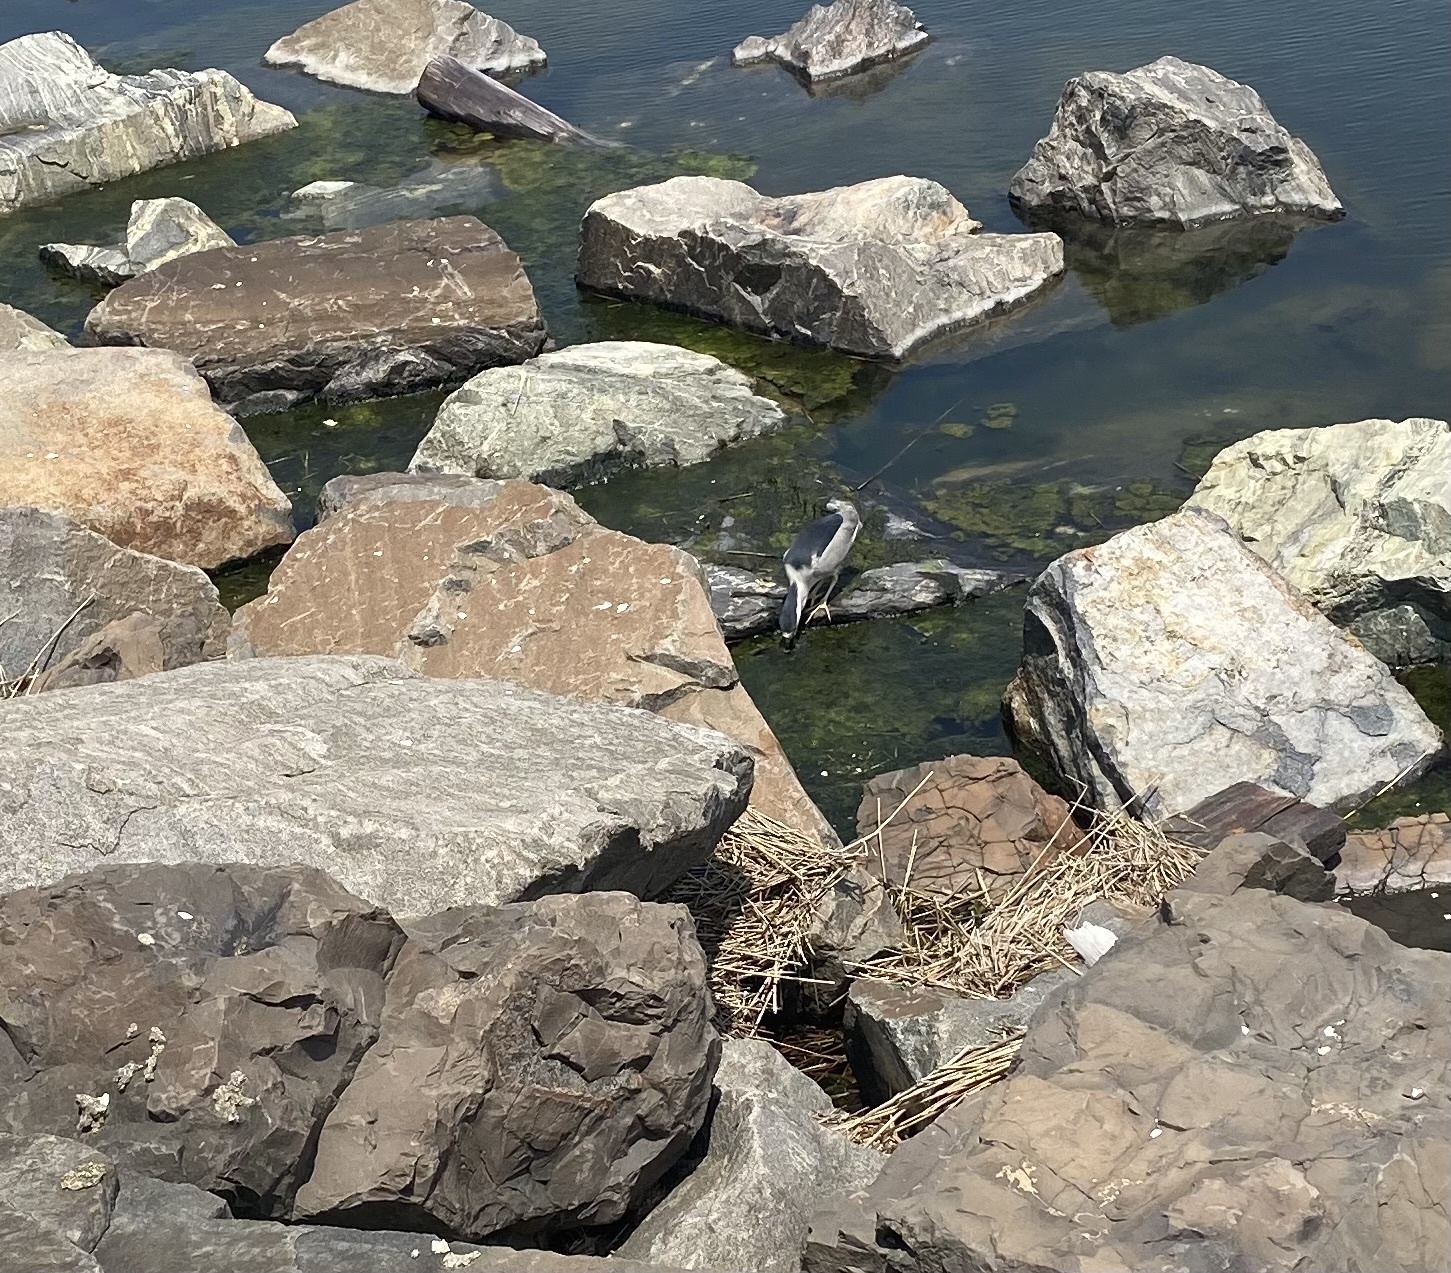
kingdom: Animalia
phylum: Chordata
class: Aves
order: Pelecaniformes
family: Ardeidae
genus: Nycticorax
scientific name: Nycticorax nycticorax
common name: Black-crowned night heron
